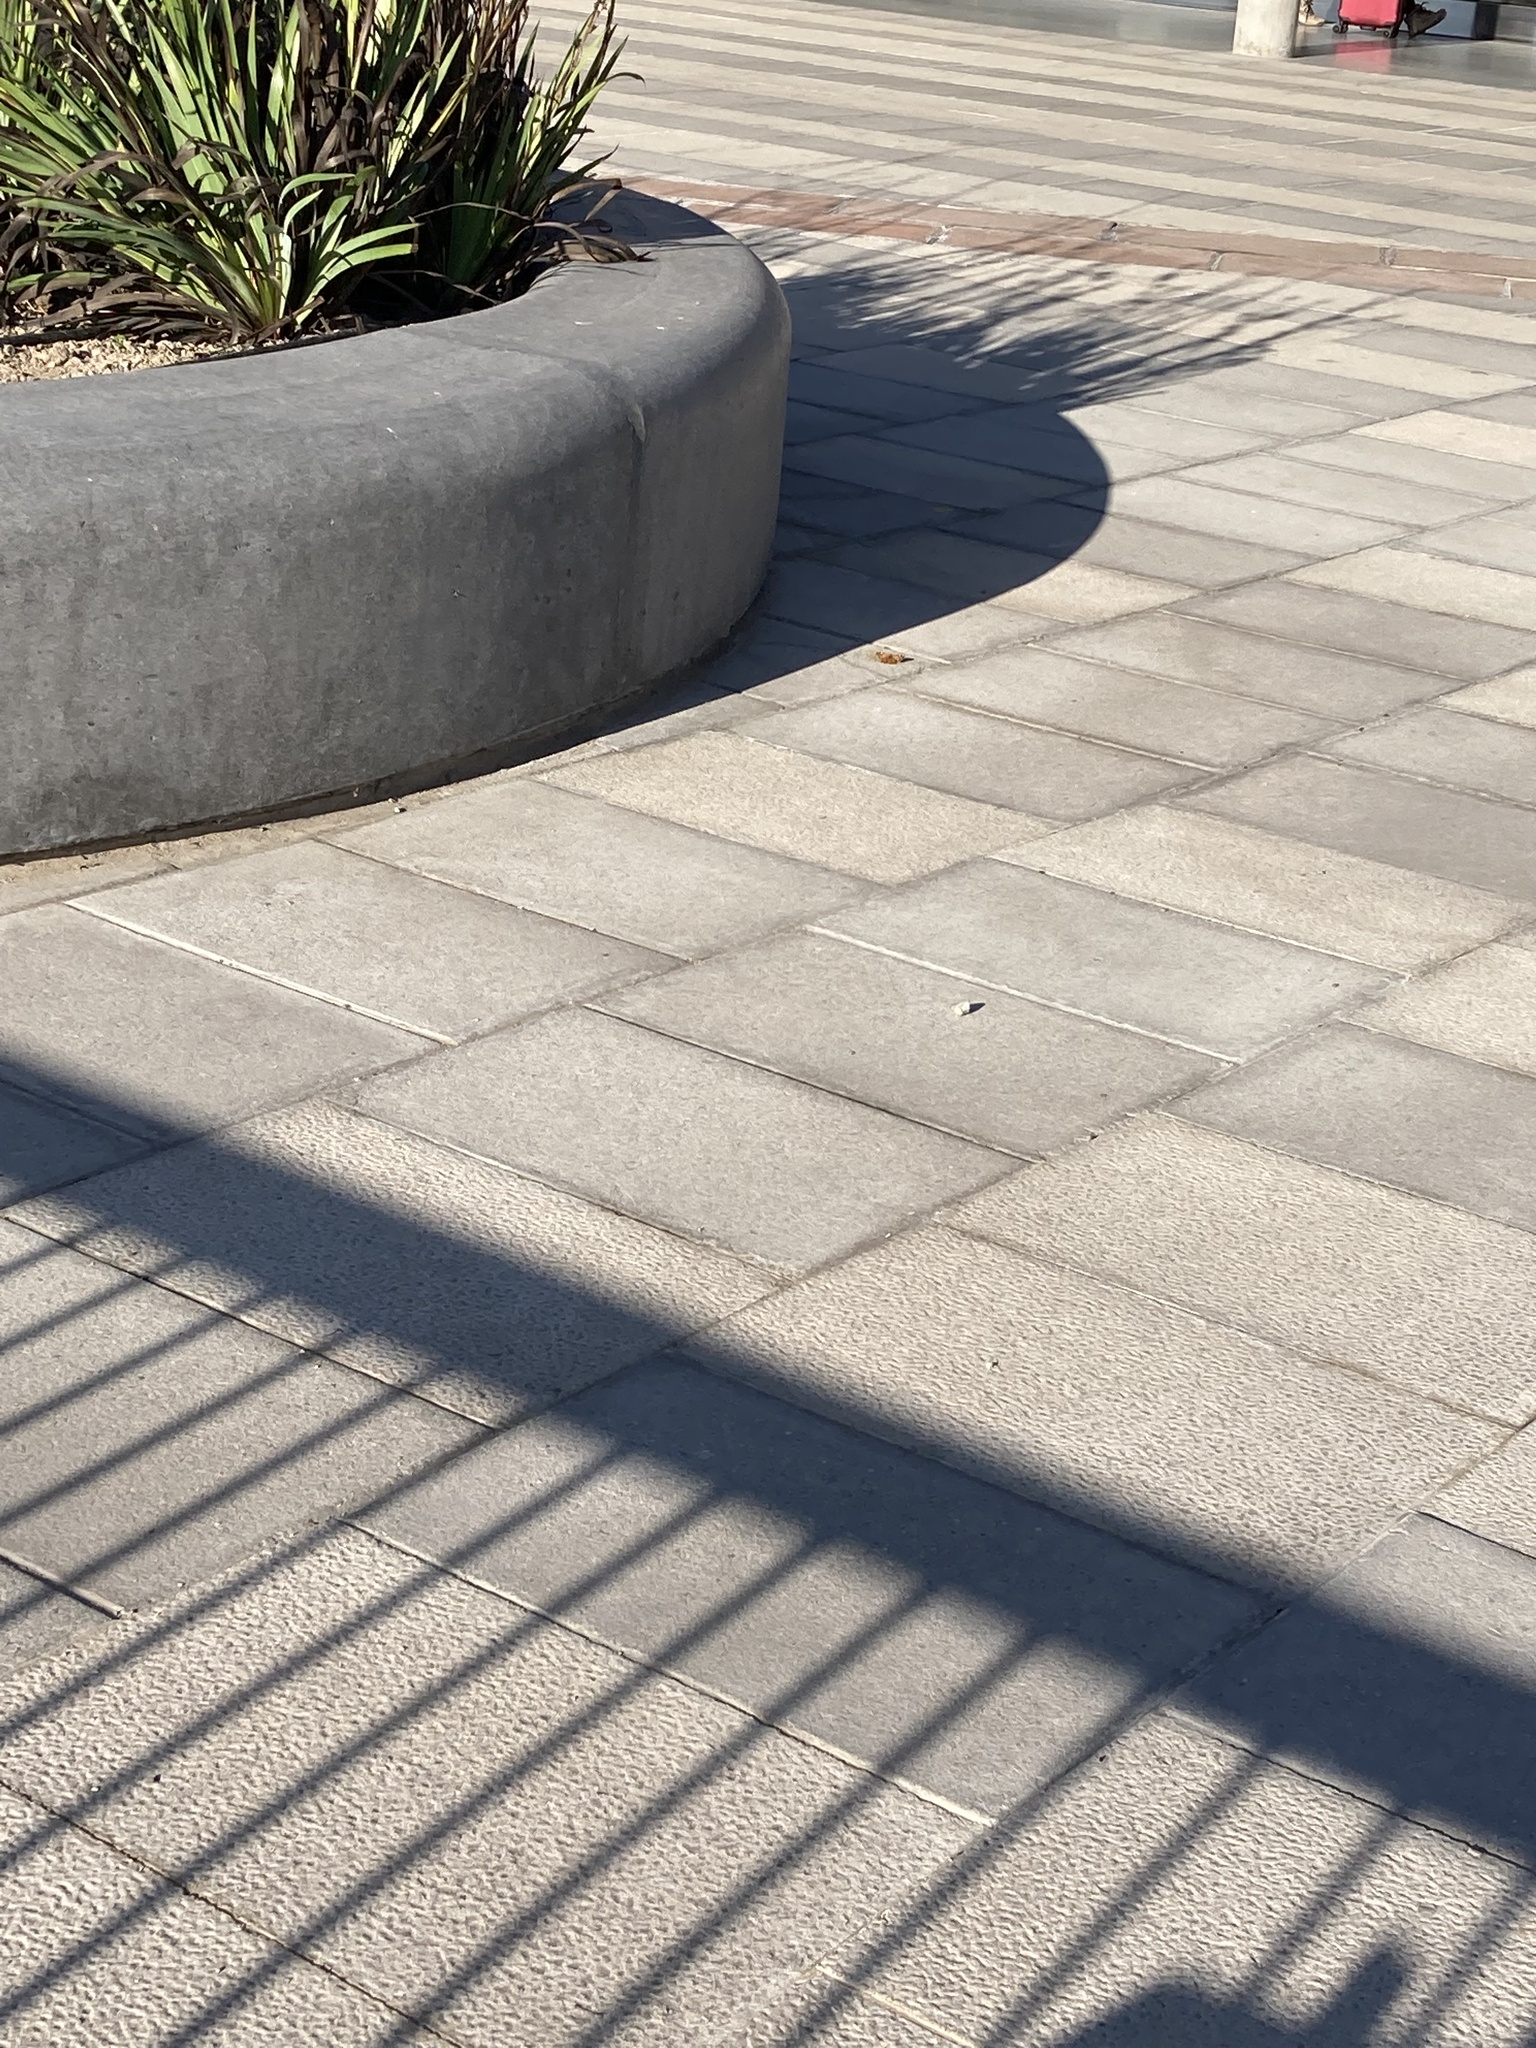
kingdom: Animalia
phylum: Arthropoda
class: Insecta
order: Lepidoptera
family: Nymphalidae
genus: Vanessa
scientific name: Vanessa
